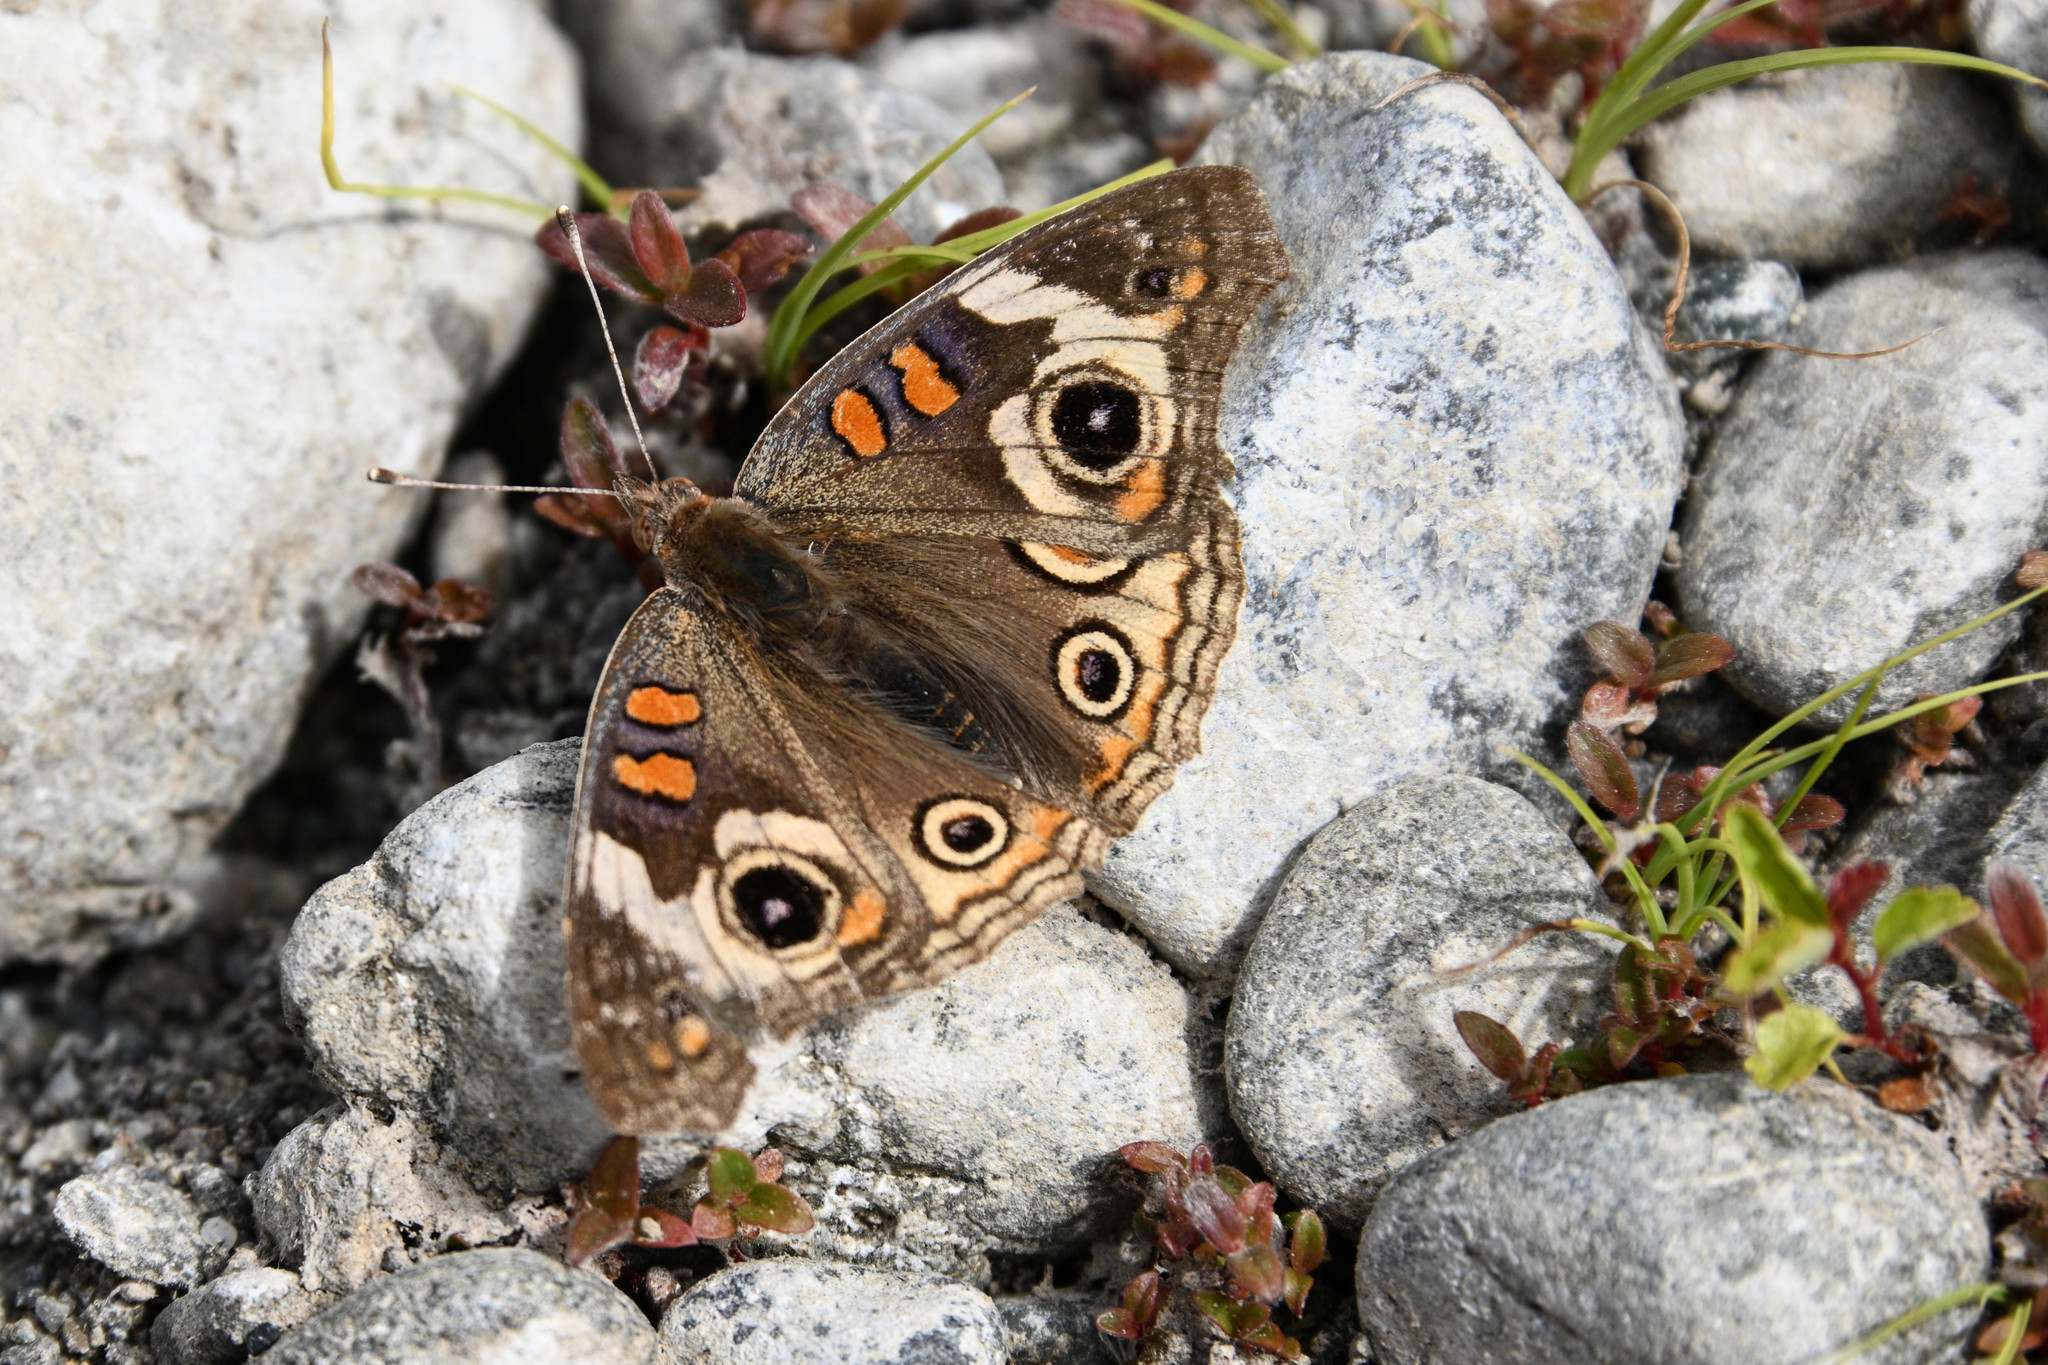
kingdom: Animalia
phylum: Arthropoda
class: Insecta
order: Lepidoptera
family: Nymphalidae
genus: Junonia
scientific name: Junonia grisea
